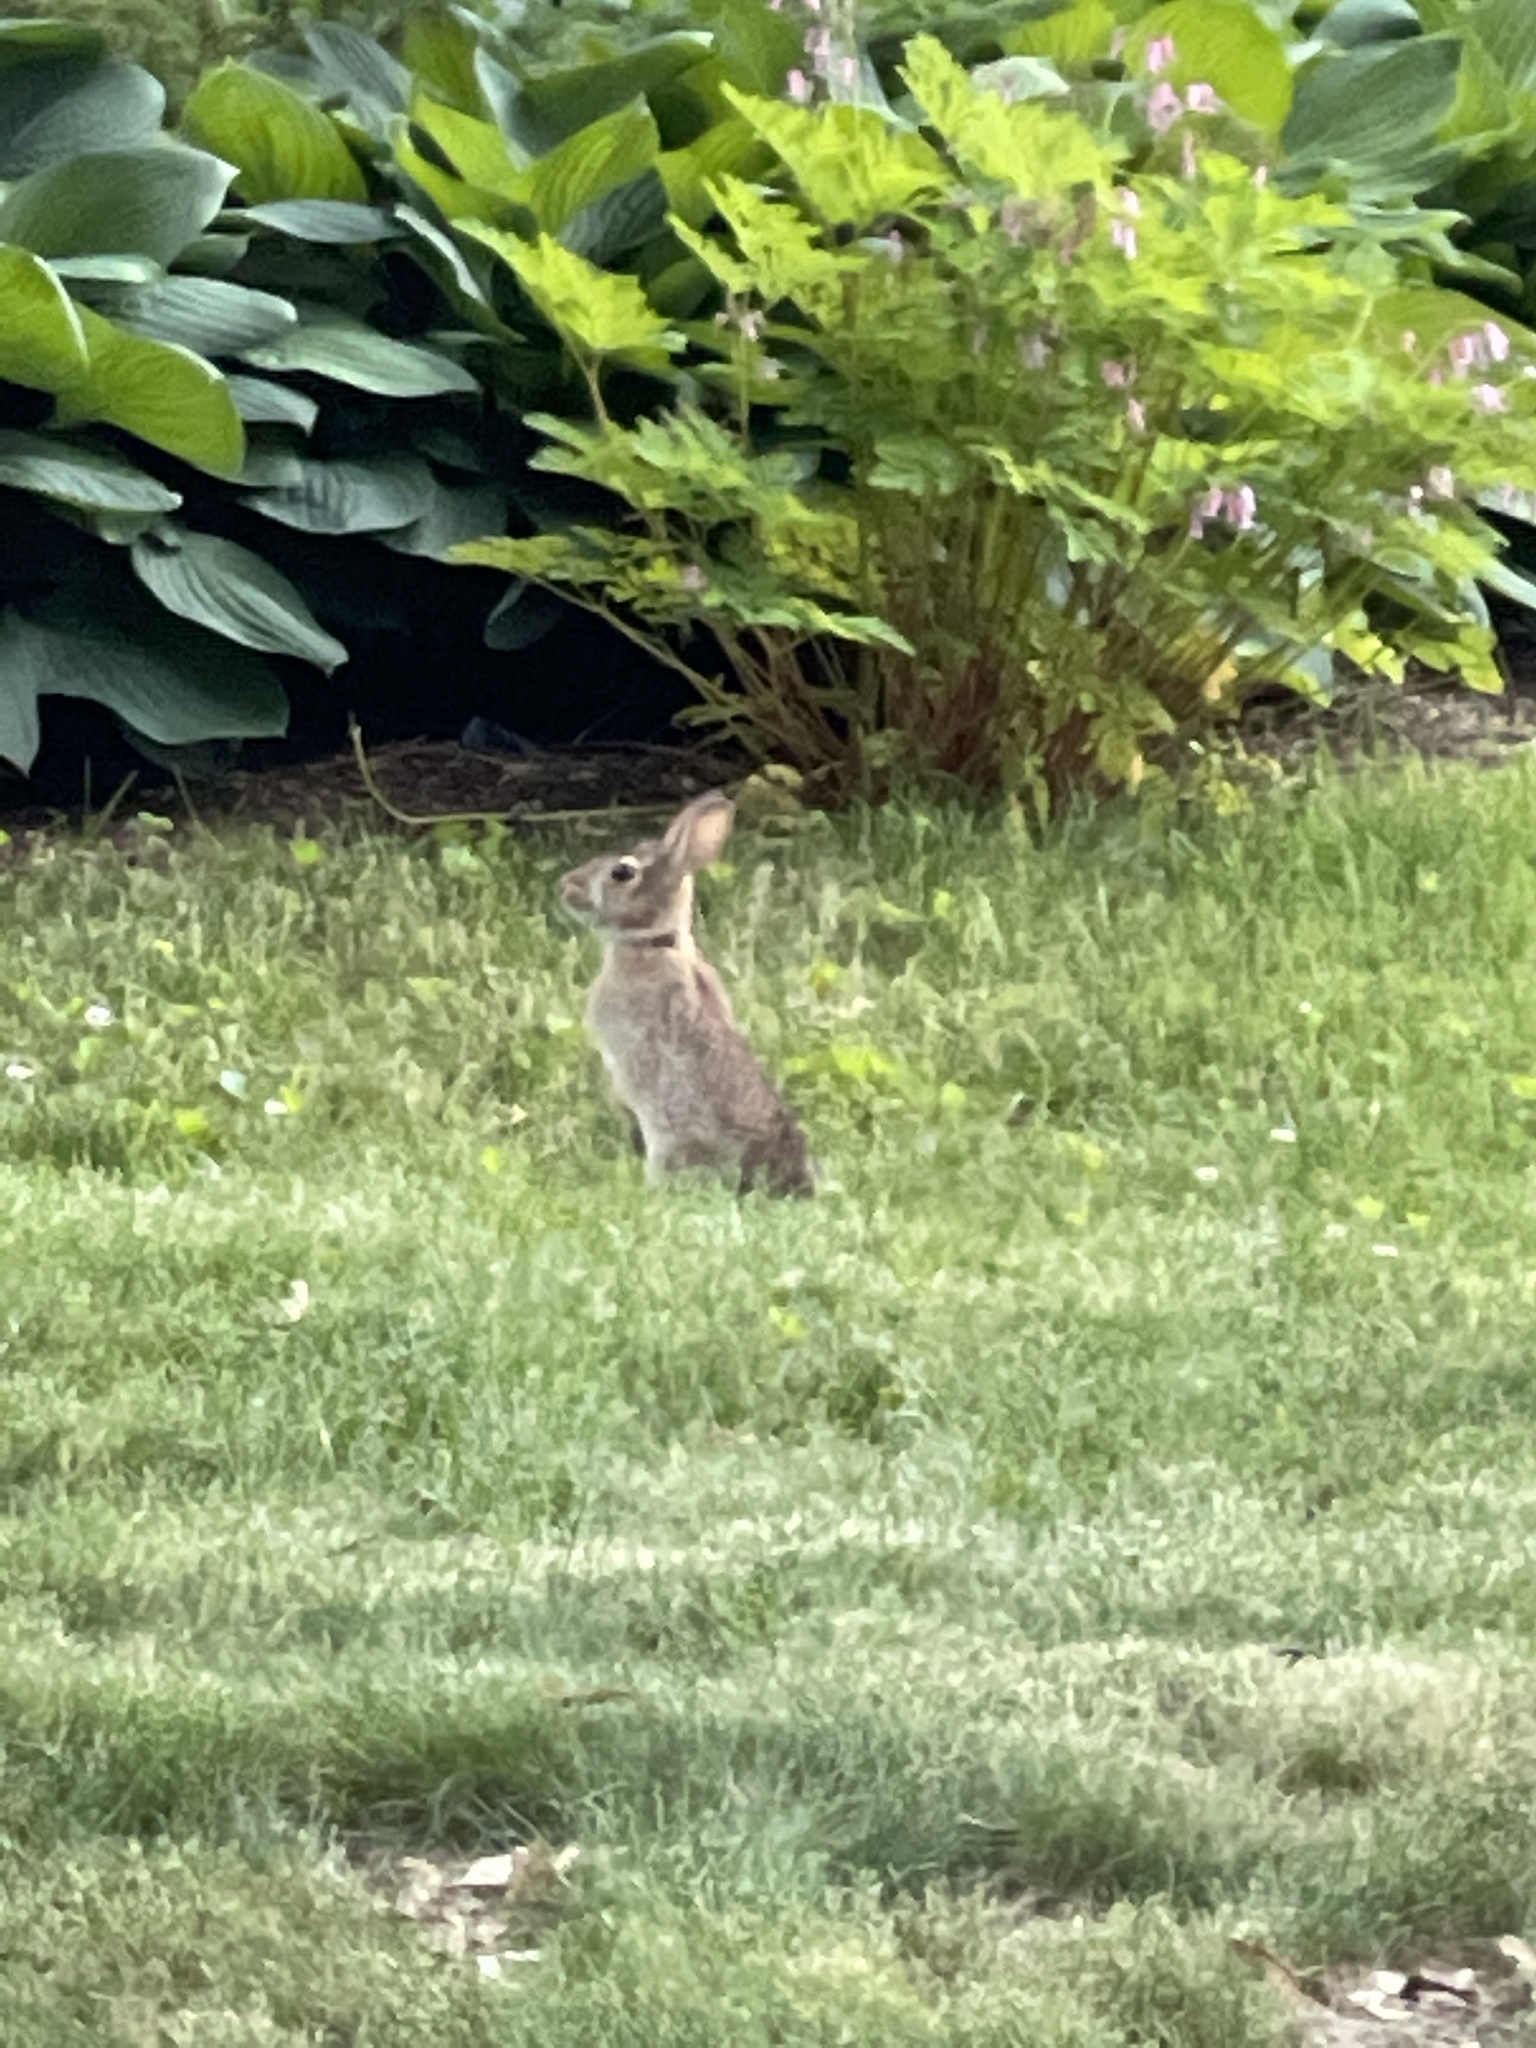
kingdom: Animalia
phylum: Chordata
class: Mammalia
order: Lagomorpha
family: Leporidae
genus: Sylvilagus
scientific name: Sylvilagus floridanus
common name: Eastern cottontail
